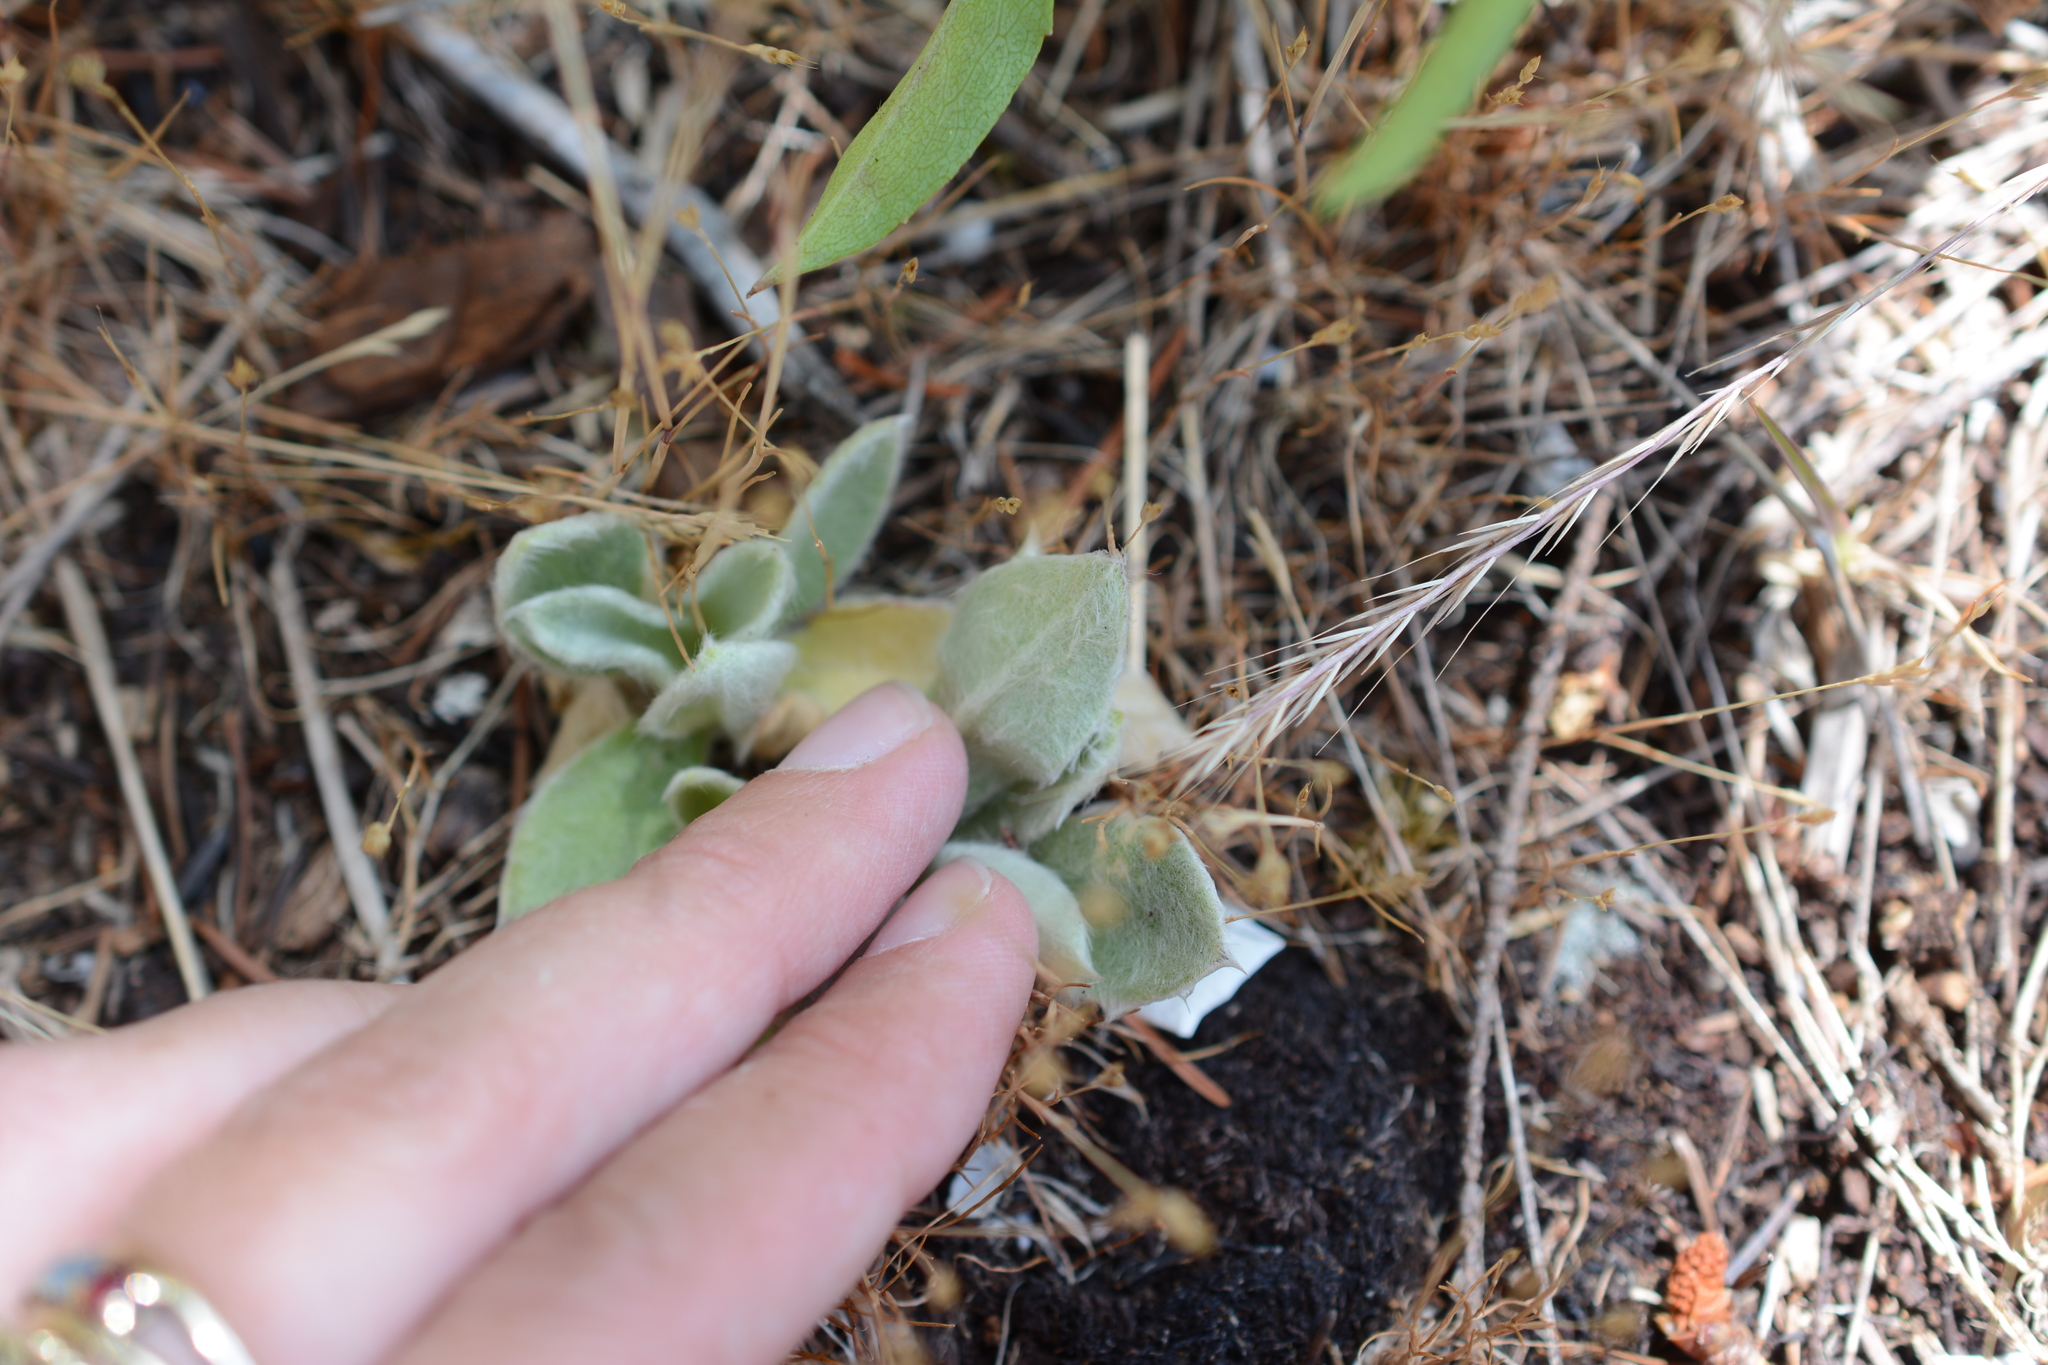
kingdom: Plantae
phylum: Tracheophyta
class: Magnoliopsida
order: Caryophyllales
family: Caryophyllaceae
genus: Silene
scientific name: Silene coronaria
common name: Rose campion
